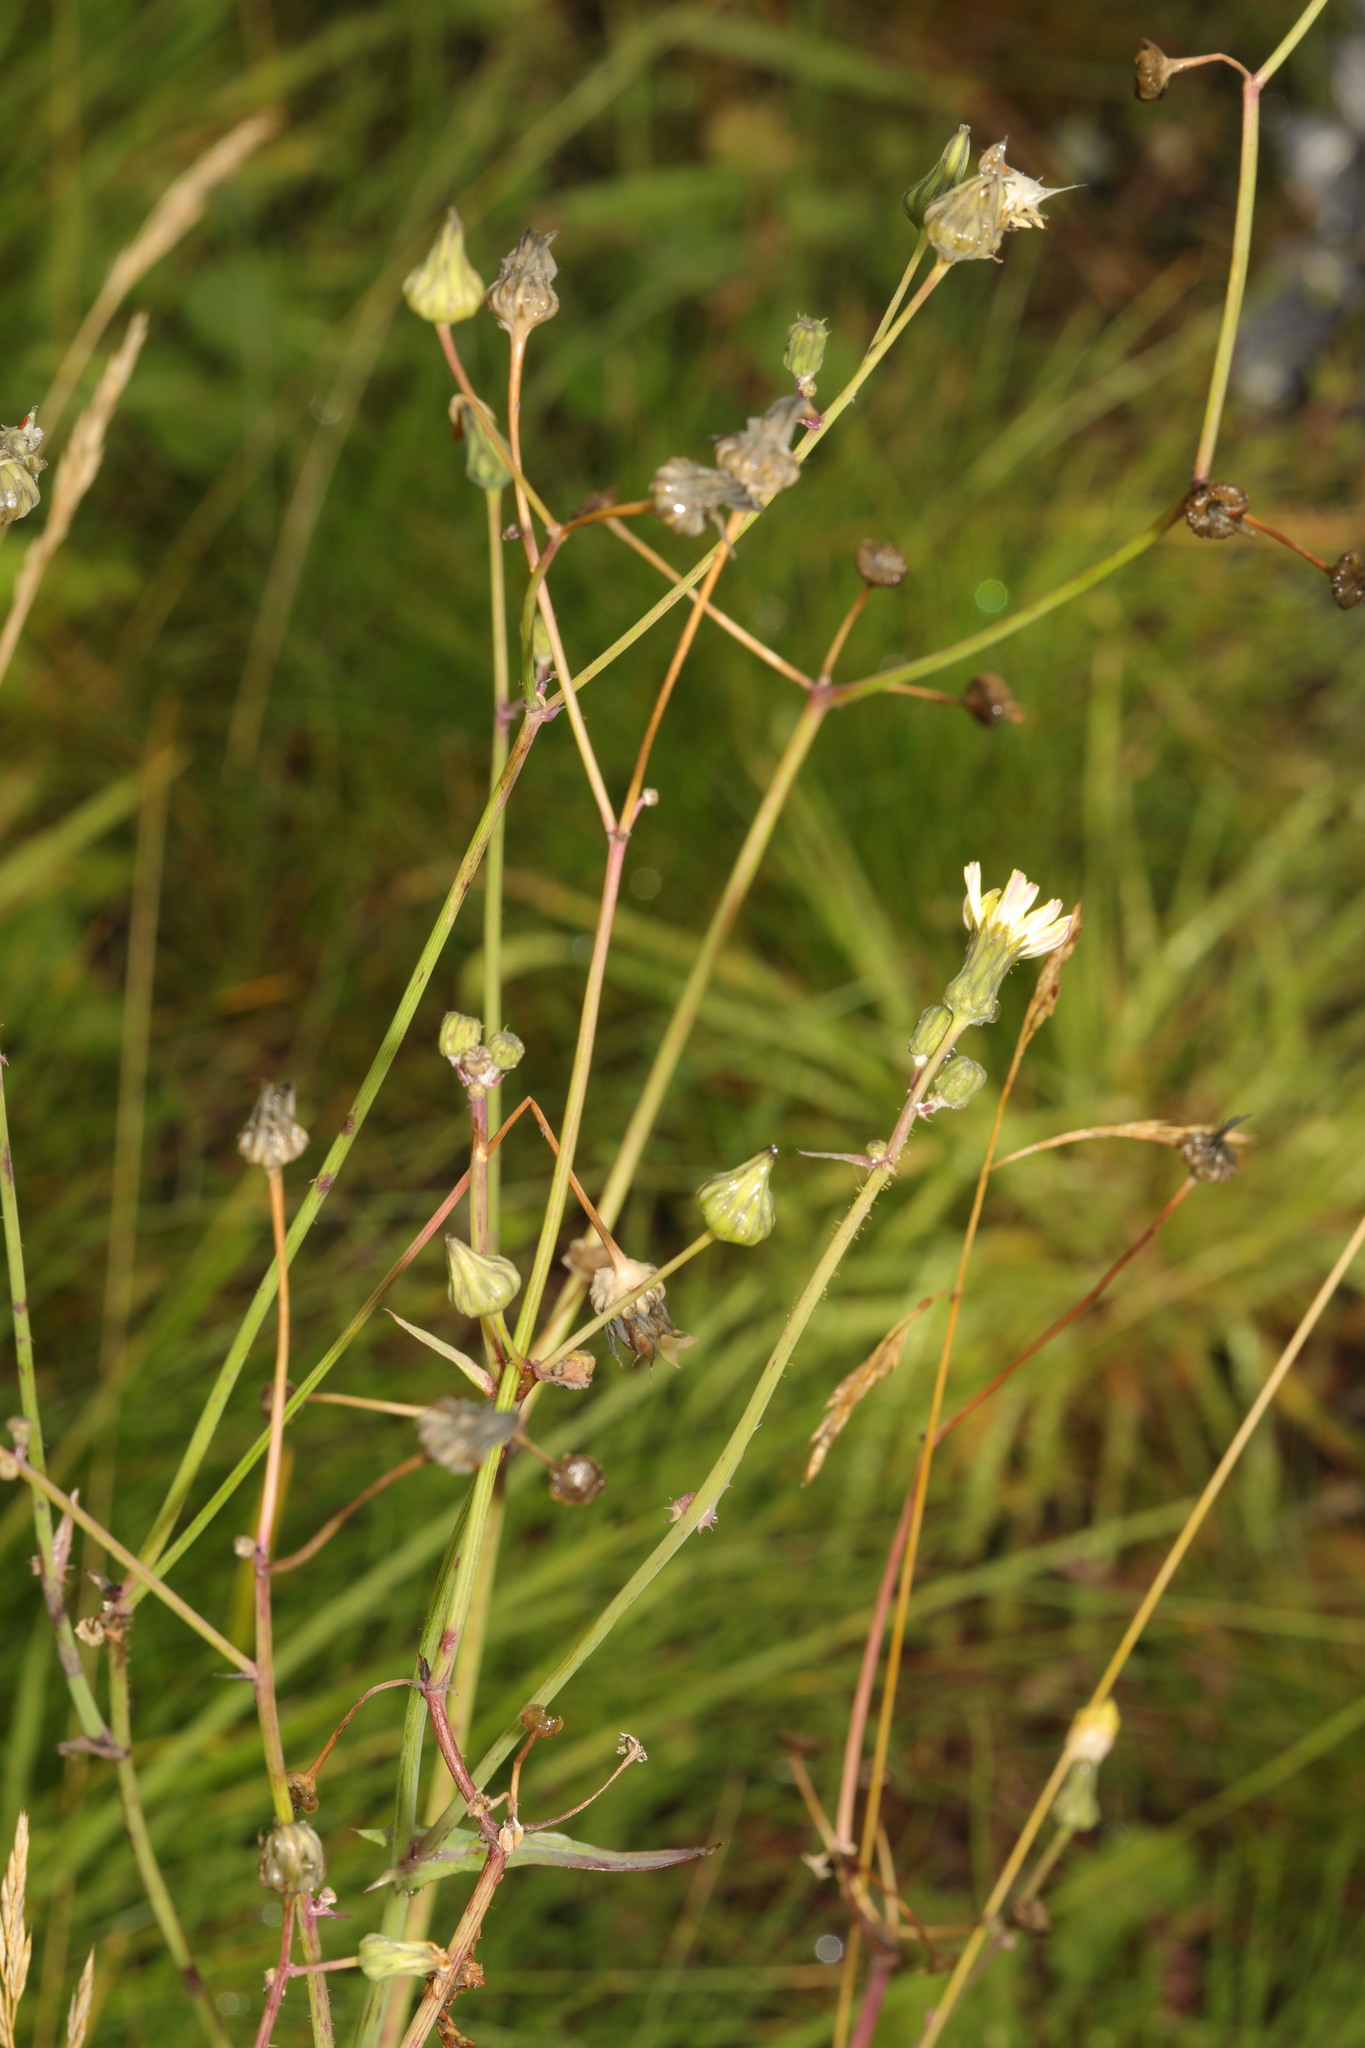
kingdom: Plantae
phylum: Tracheophyta
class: Magnoliopsida
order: Asterales
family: Asteraceae
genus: Sonchus
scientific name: Sonchus oleraceus
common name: Common sowthistle
